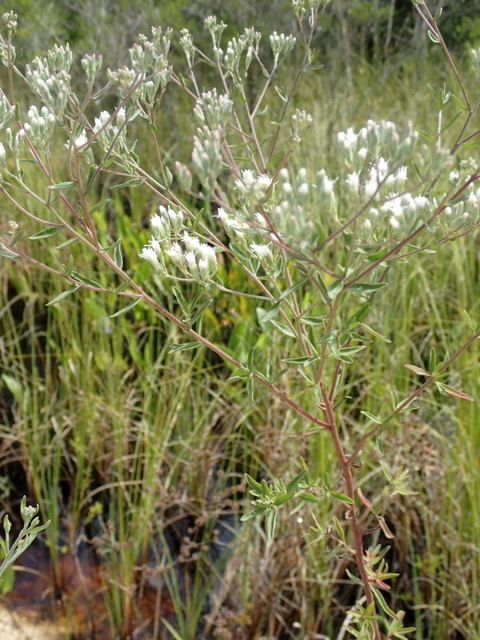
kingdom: Plantae
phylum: Tracheophyta
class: Magnoliopsida
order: Asterales
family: Asteraceae
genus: Eupatorium
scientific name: Eupatorium hyssopifolium
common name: Hyssop-leaf thoroughwort
